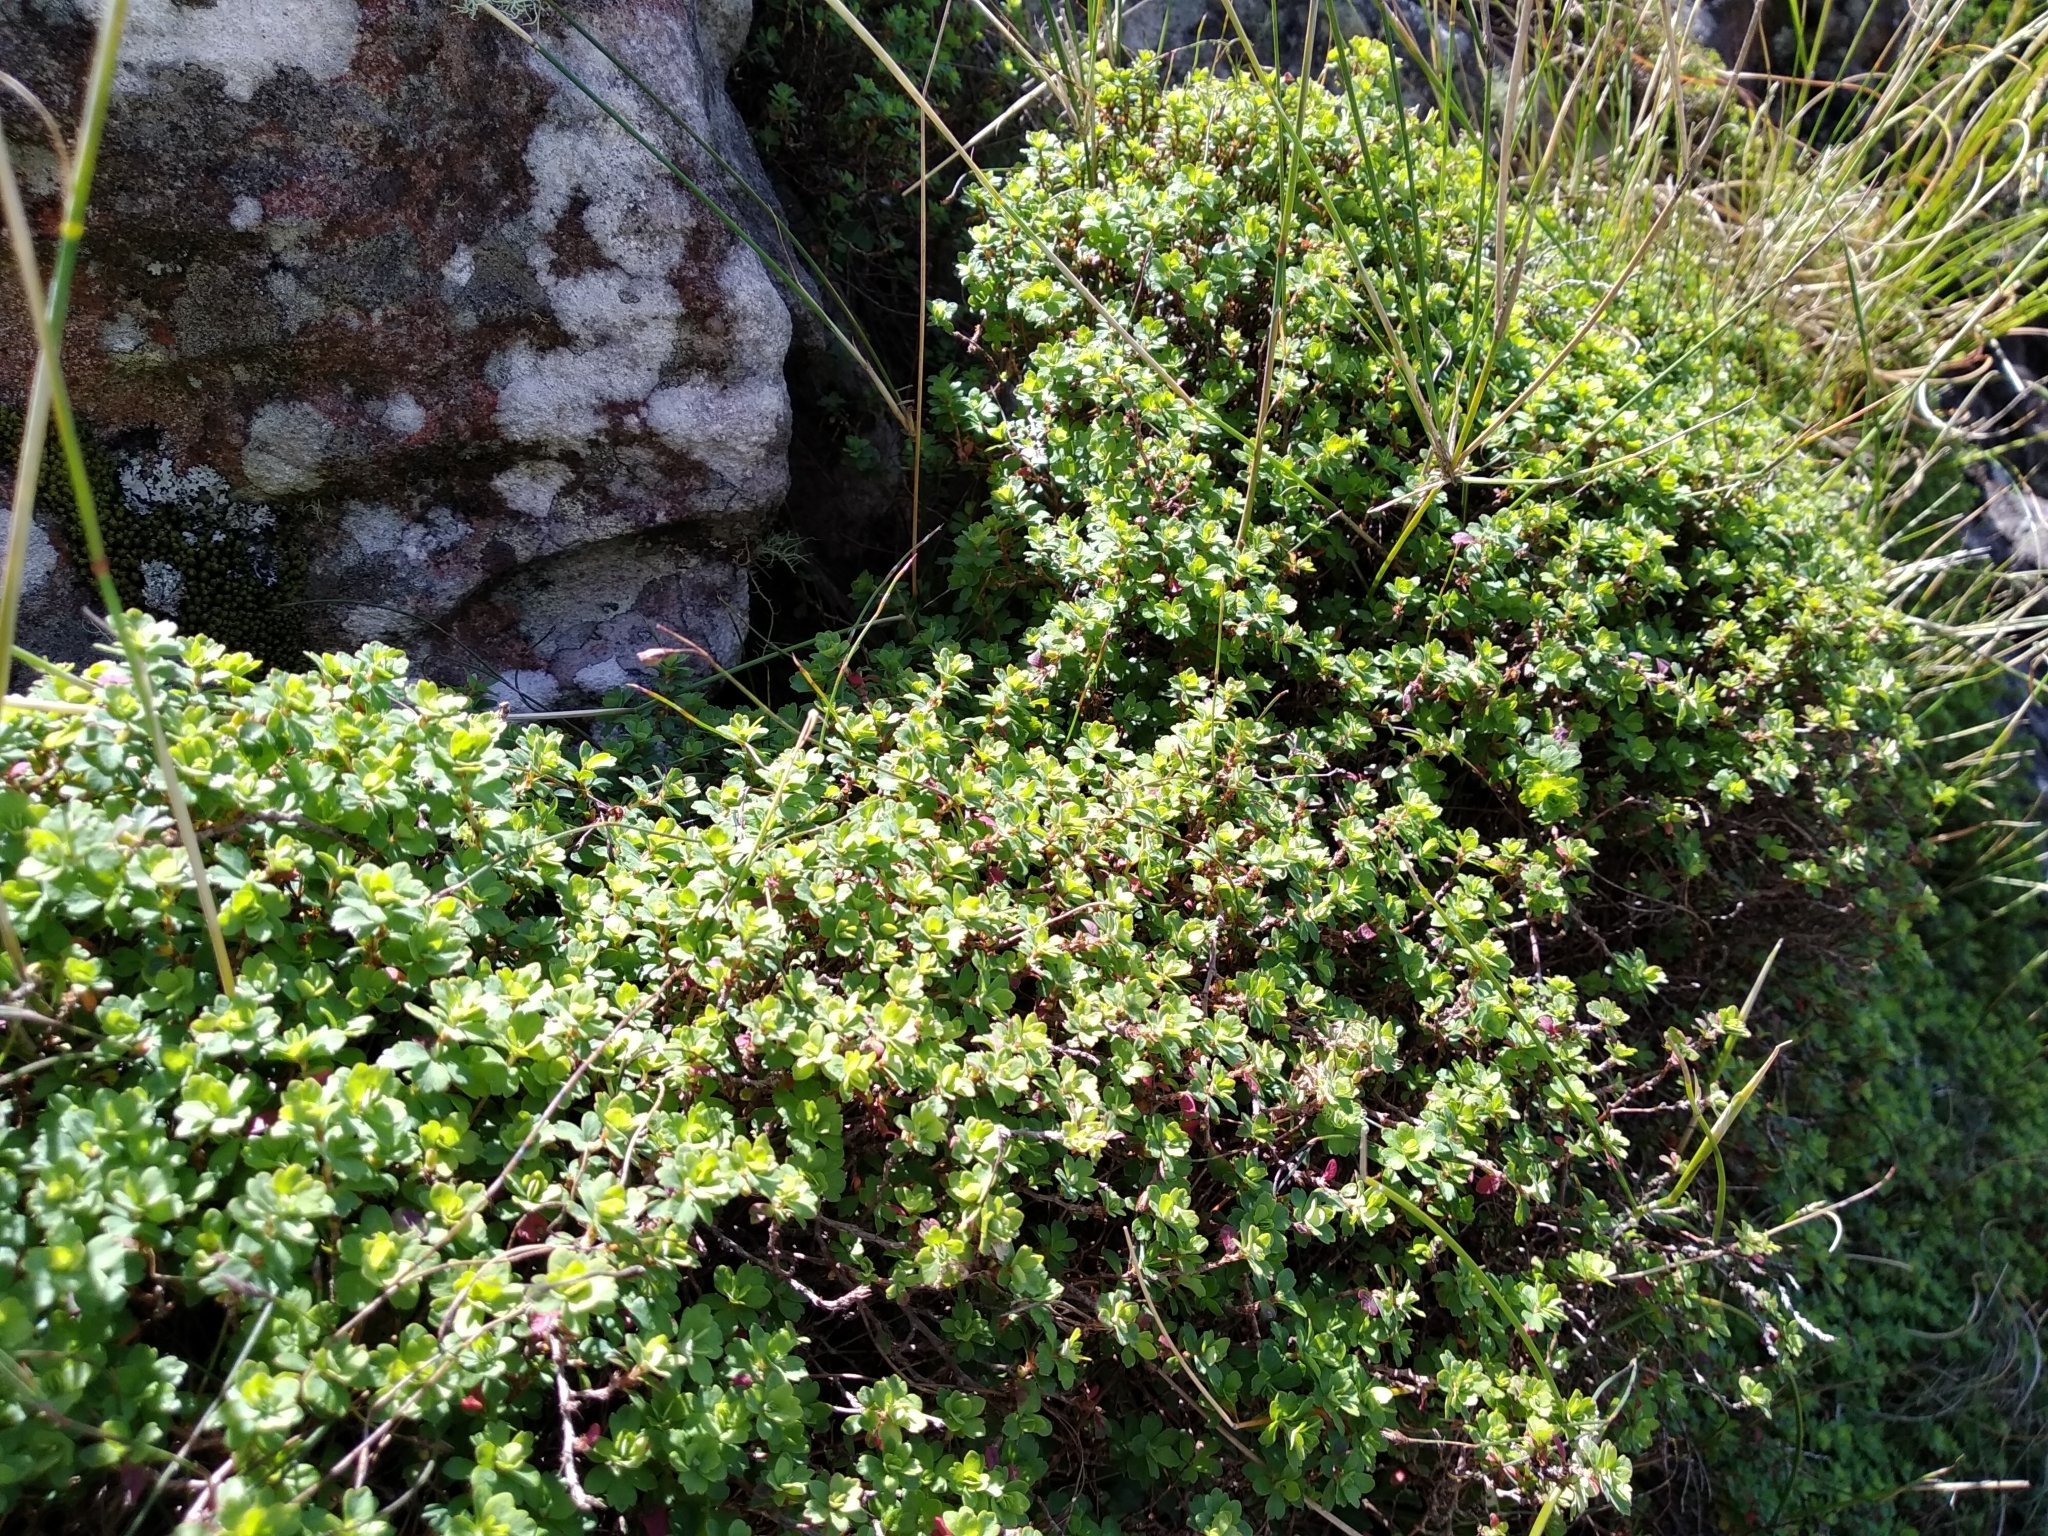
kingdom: Plantae
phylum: Tracheophyta
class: Magnoliopsida
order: Rosales
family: Rosaceae
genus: Cliffortia
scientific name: Cliffortia dentata
